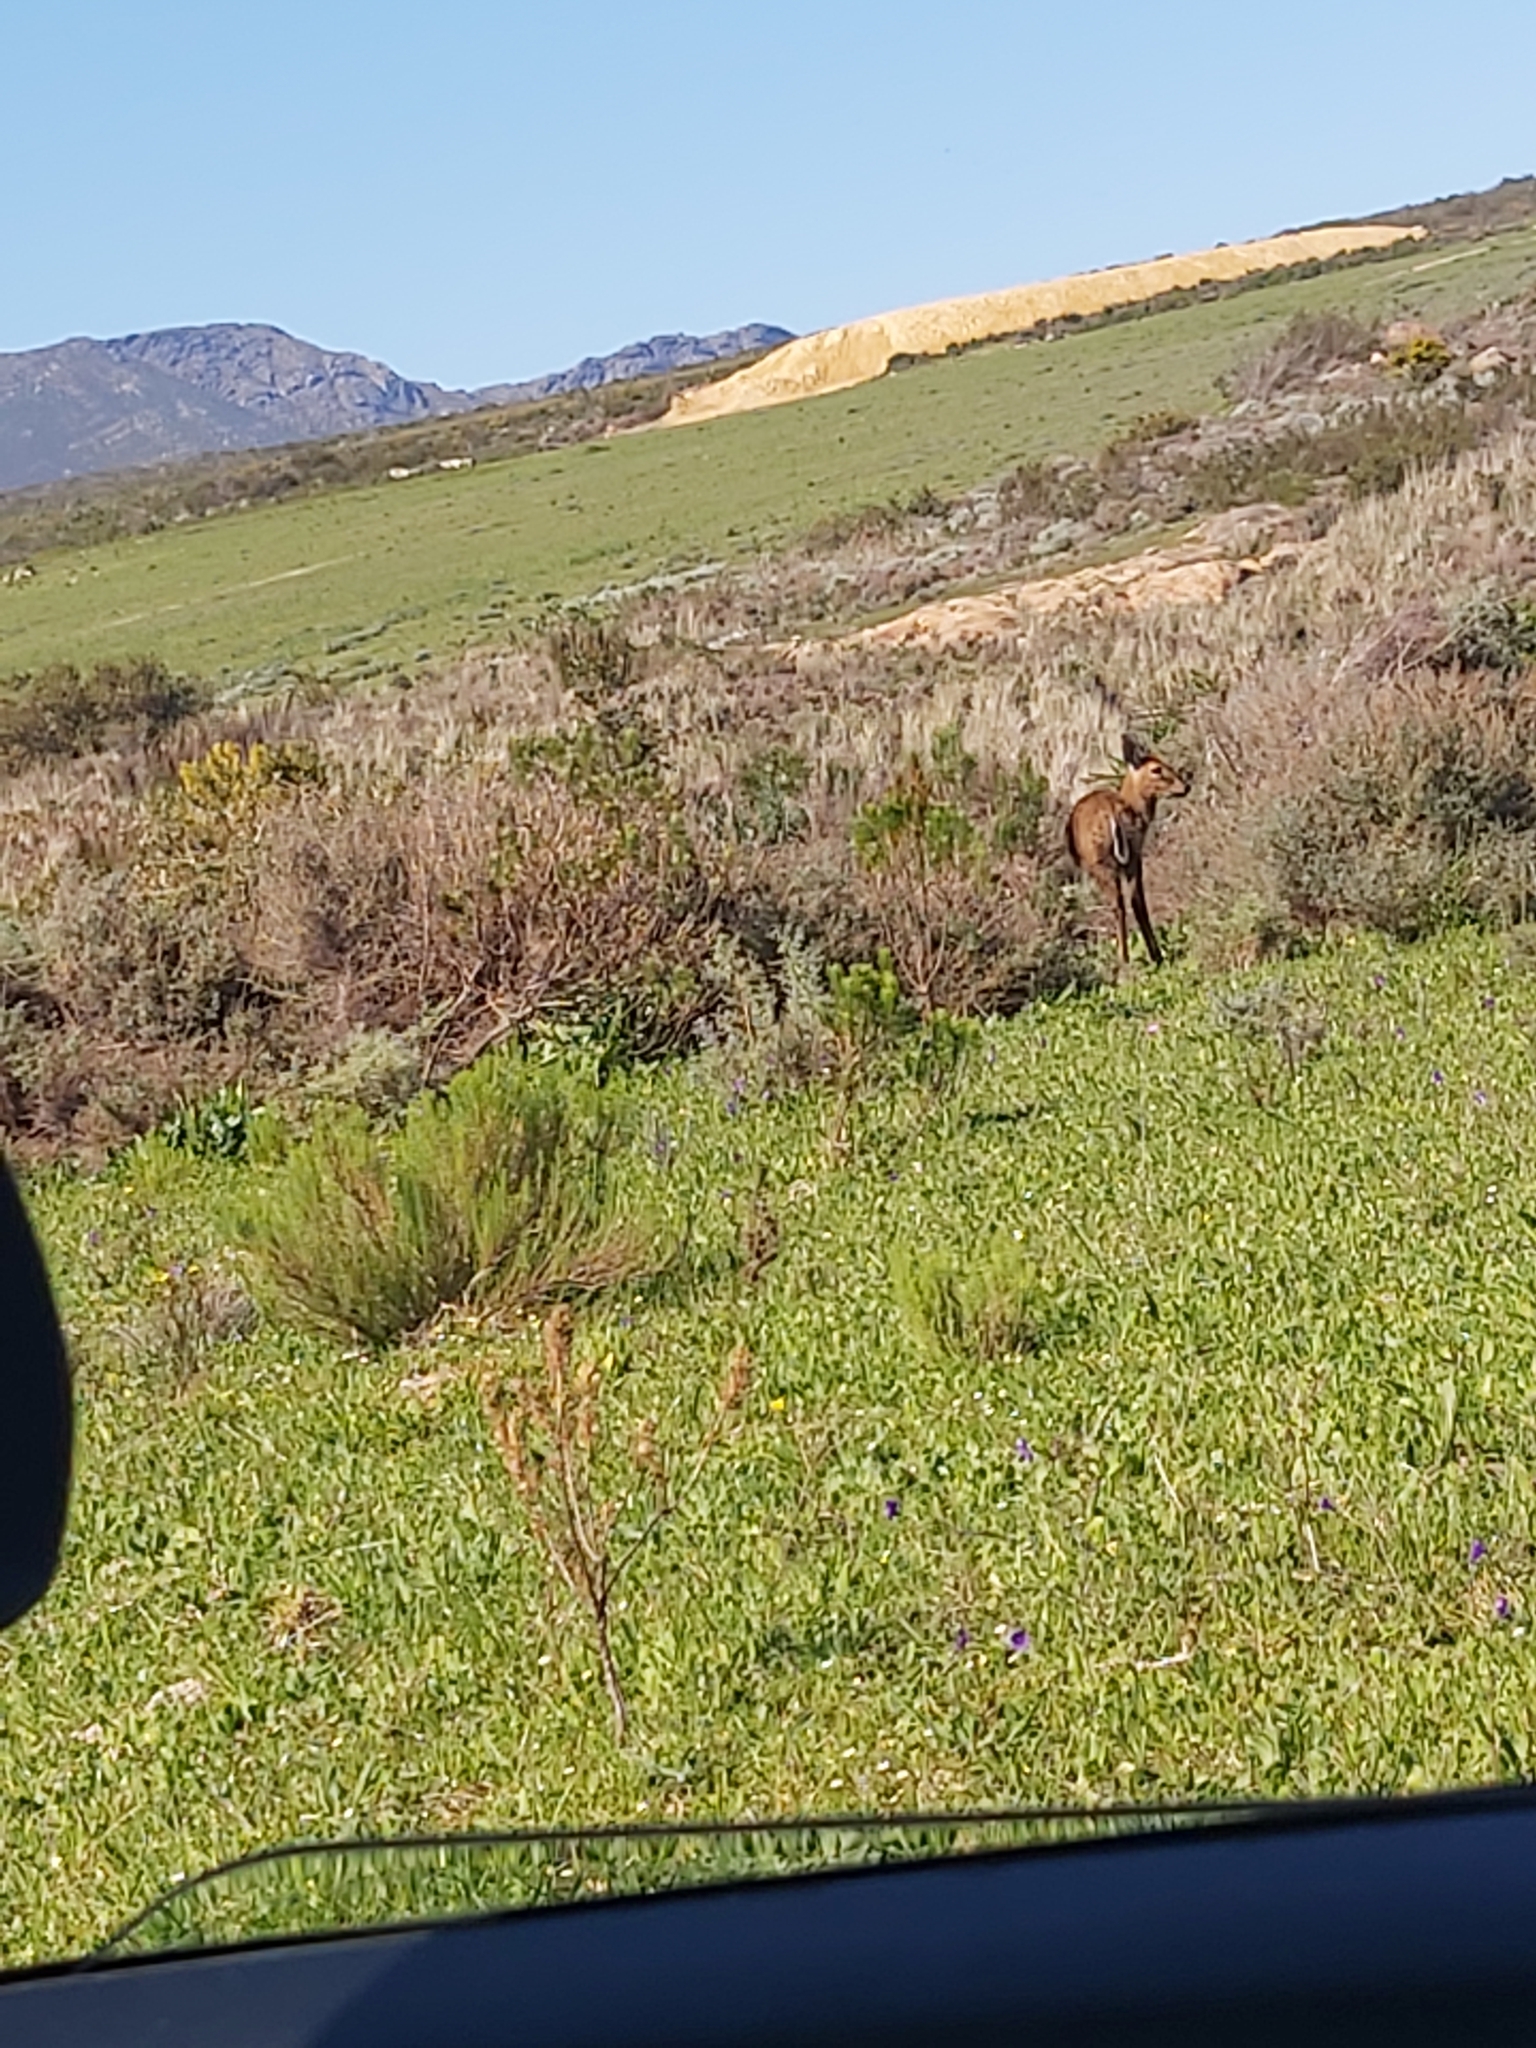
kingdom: Animalia
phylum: Chordata
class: Mammalia
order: Artiodactyla
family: Bovidae
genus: Sylvicapra
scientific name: Sylvicapra grimmia
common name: Bush duiker
